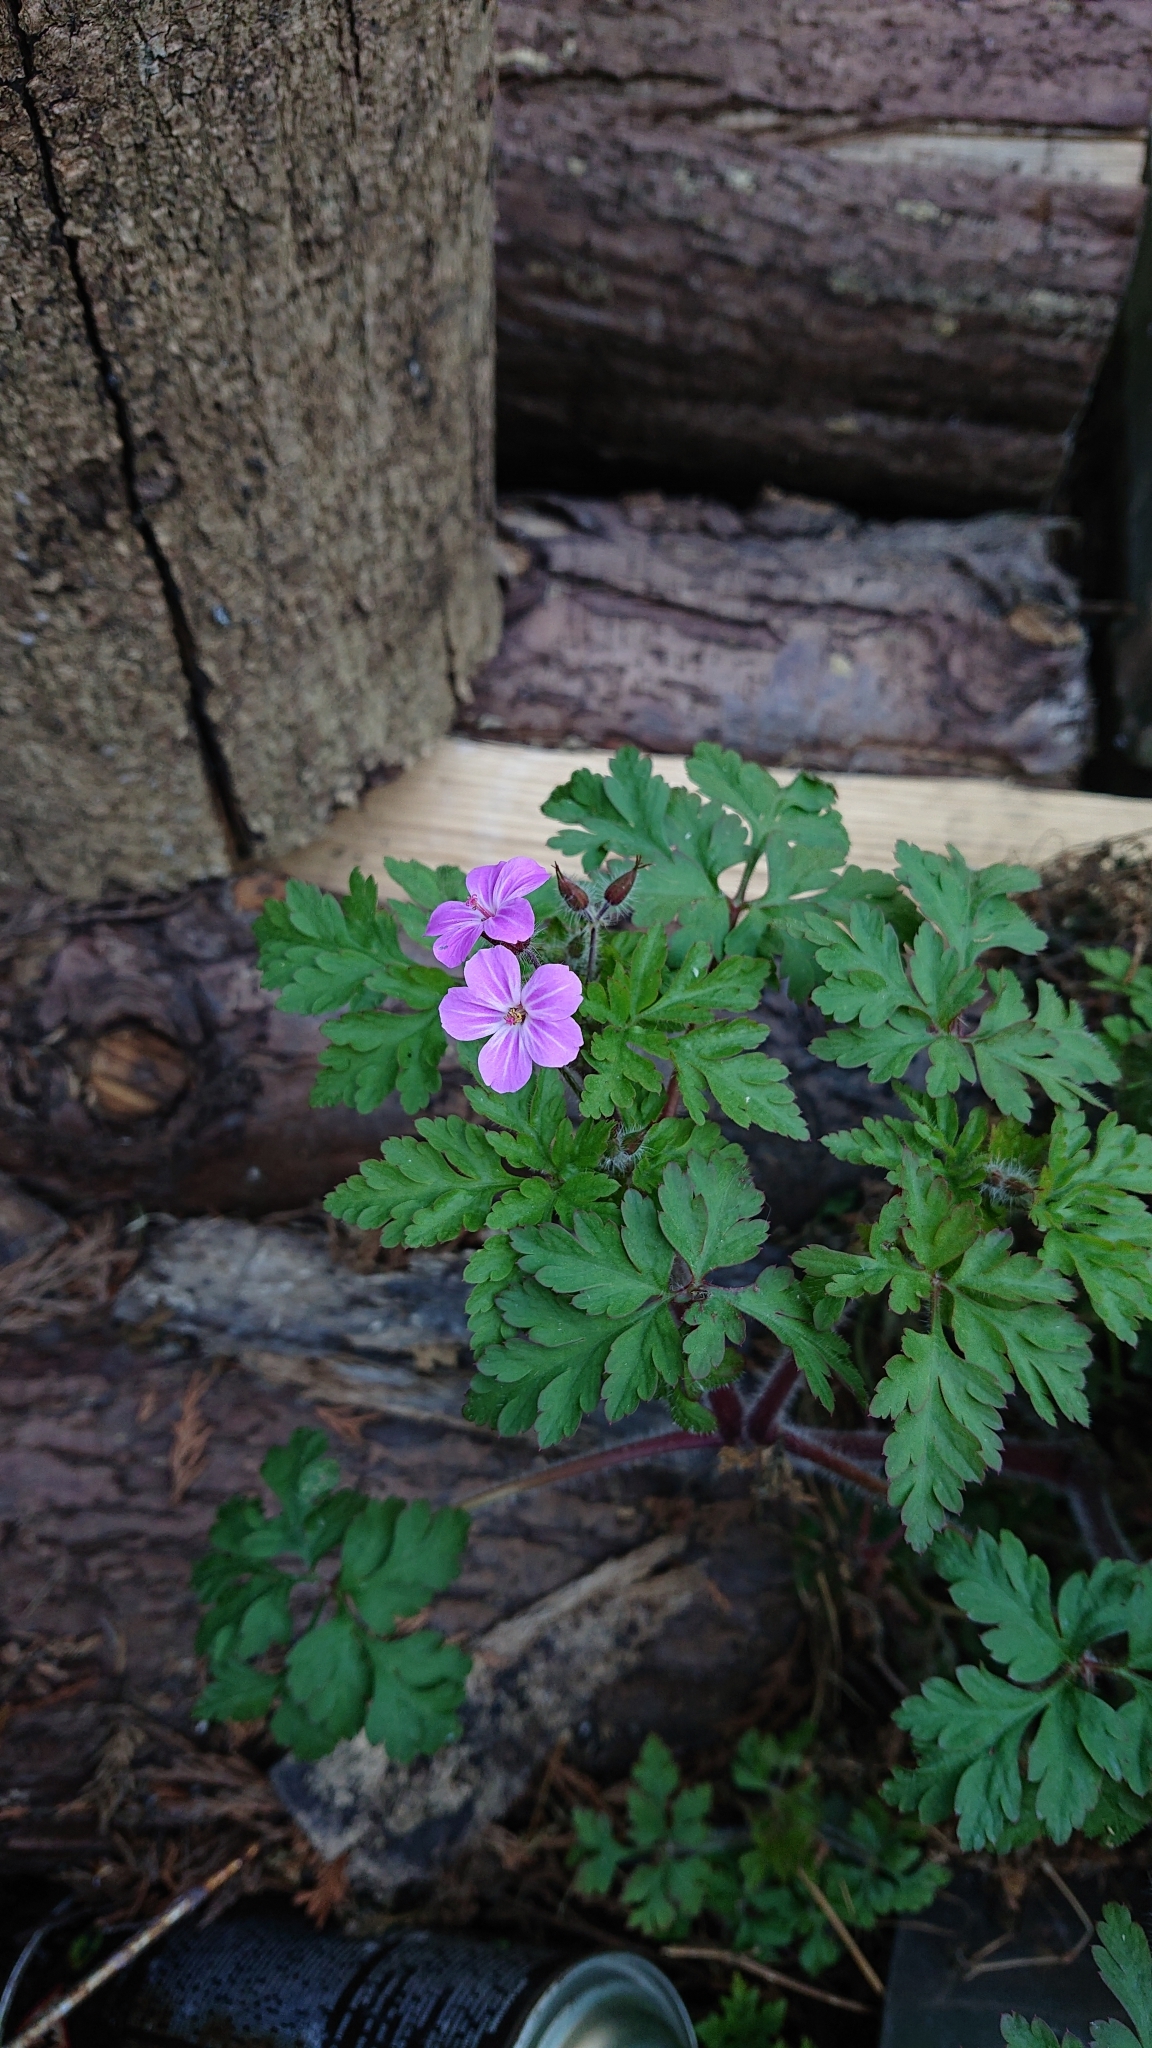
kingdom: Plantae
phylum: Tracheophyta
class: Magnoliopsida
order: Geraniales
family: Geraniaceae
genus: Geranium
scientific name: Geranium robertianum
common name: Herb-robert
